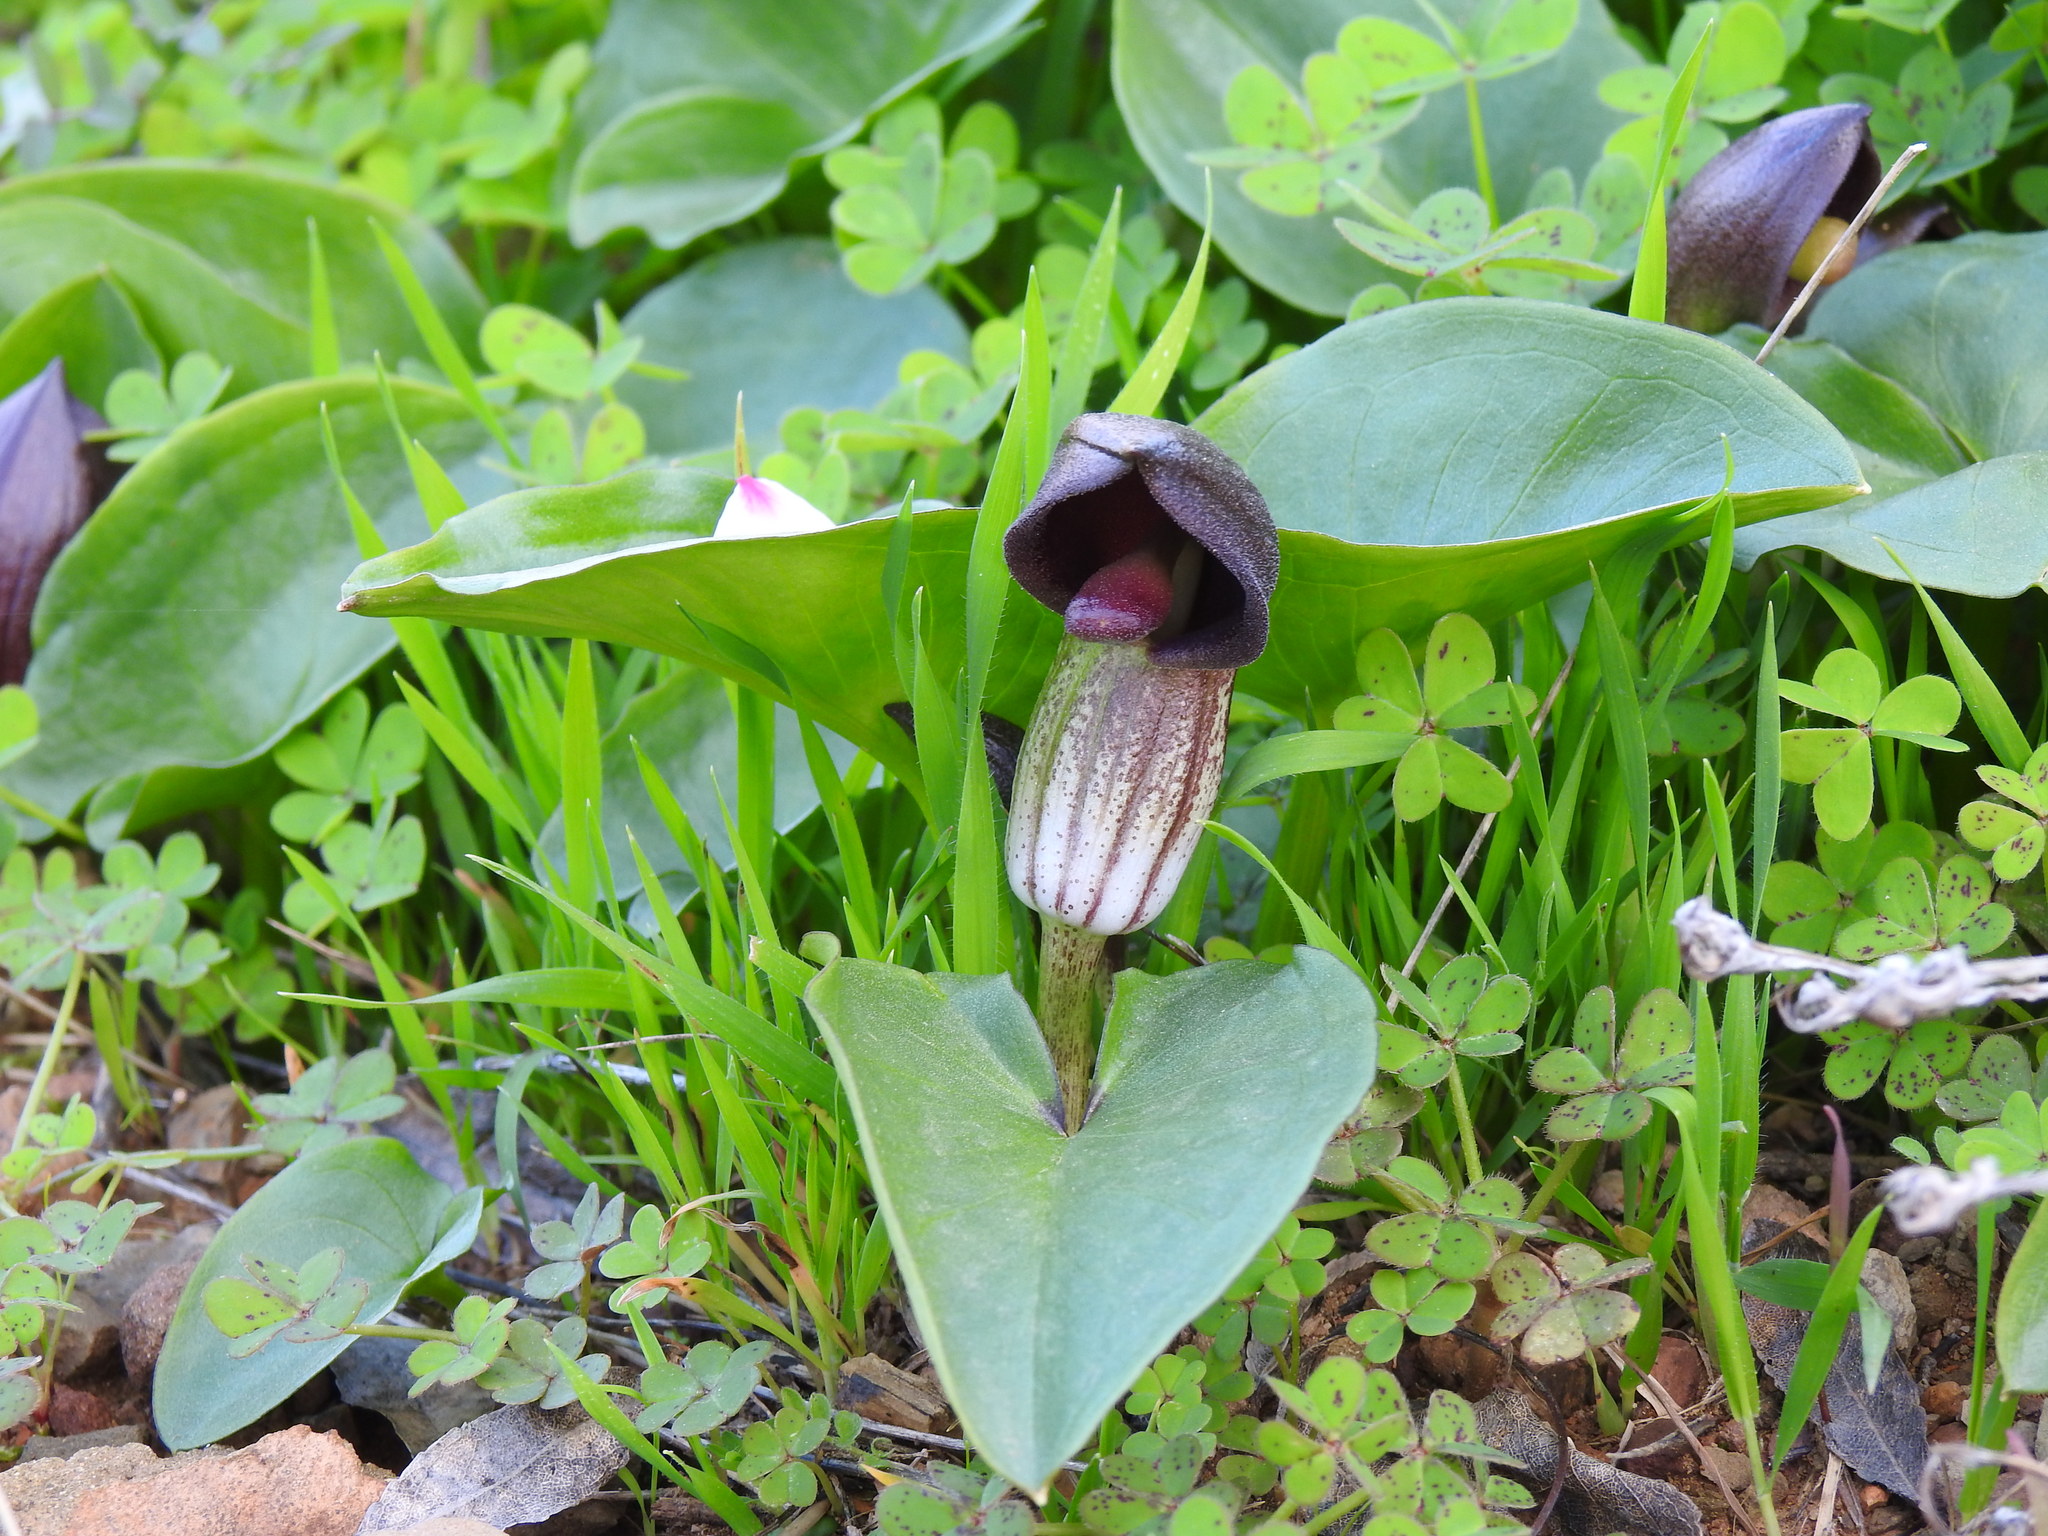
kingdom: Plantae
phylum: Tracheophyta
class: Liliopsida
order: Alismatales
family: Araceae
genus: Arisarum
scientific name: Arisarum simorrhinum
